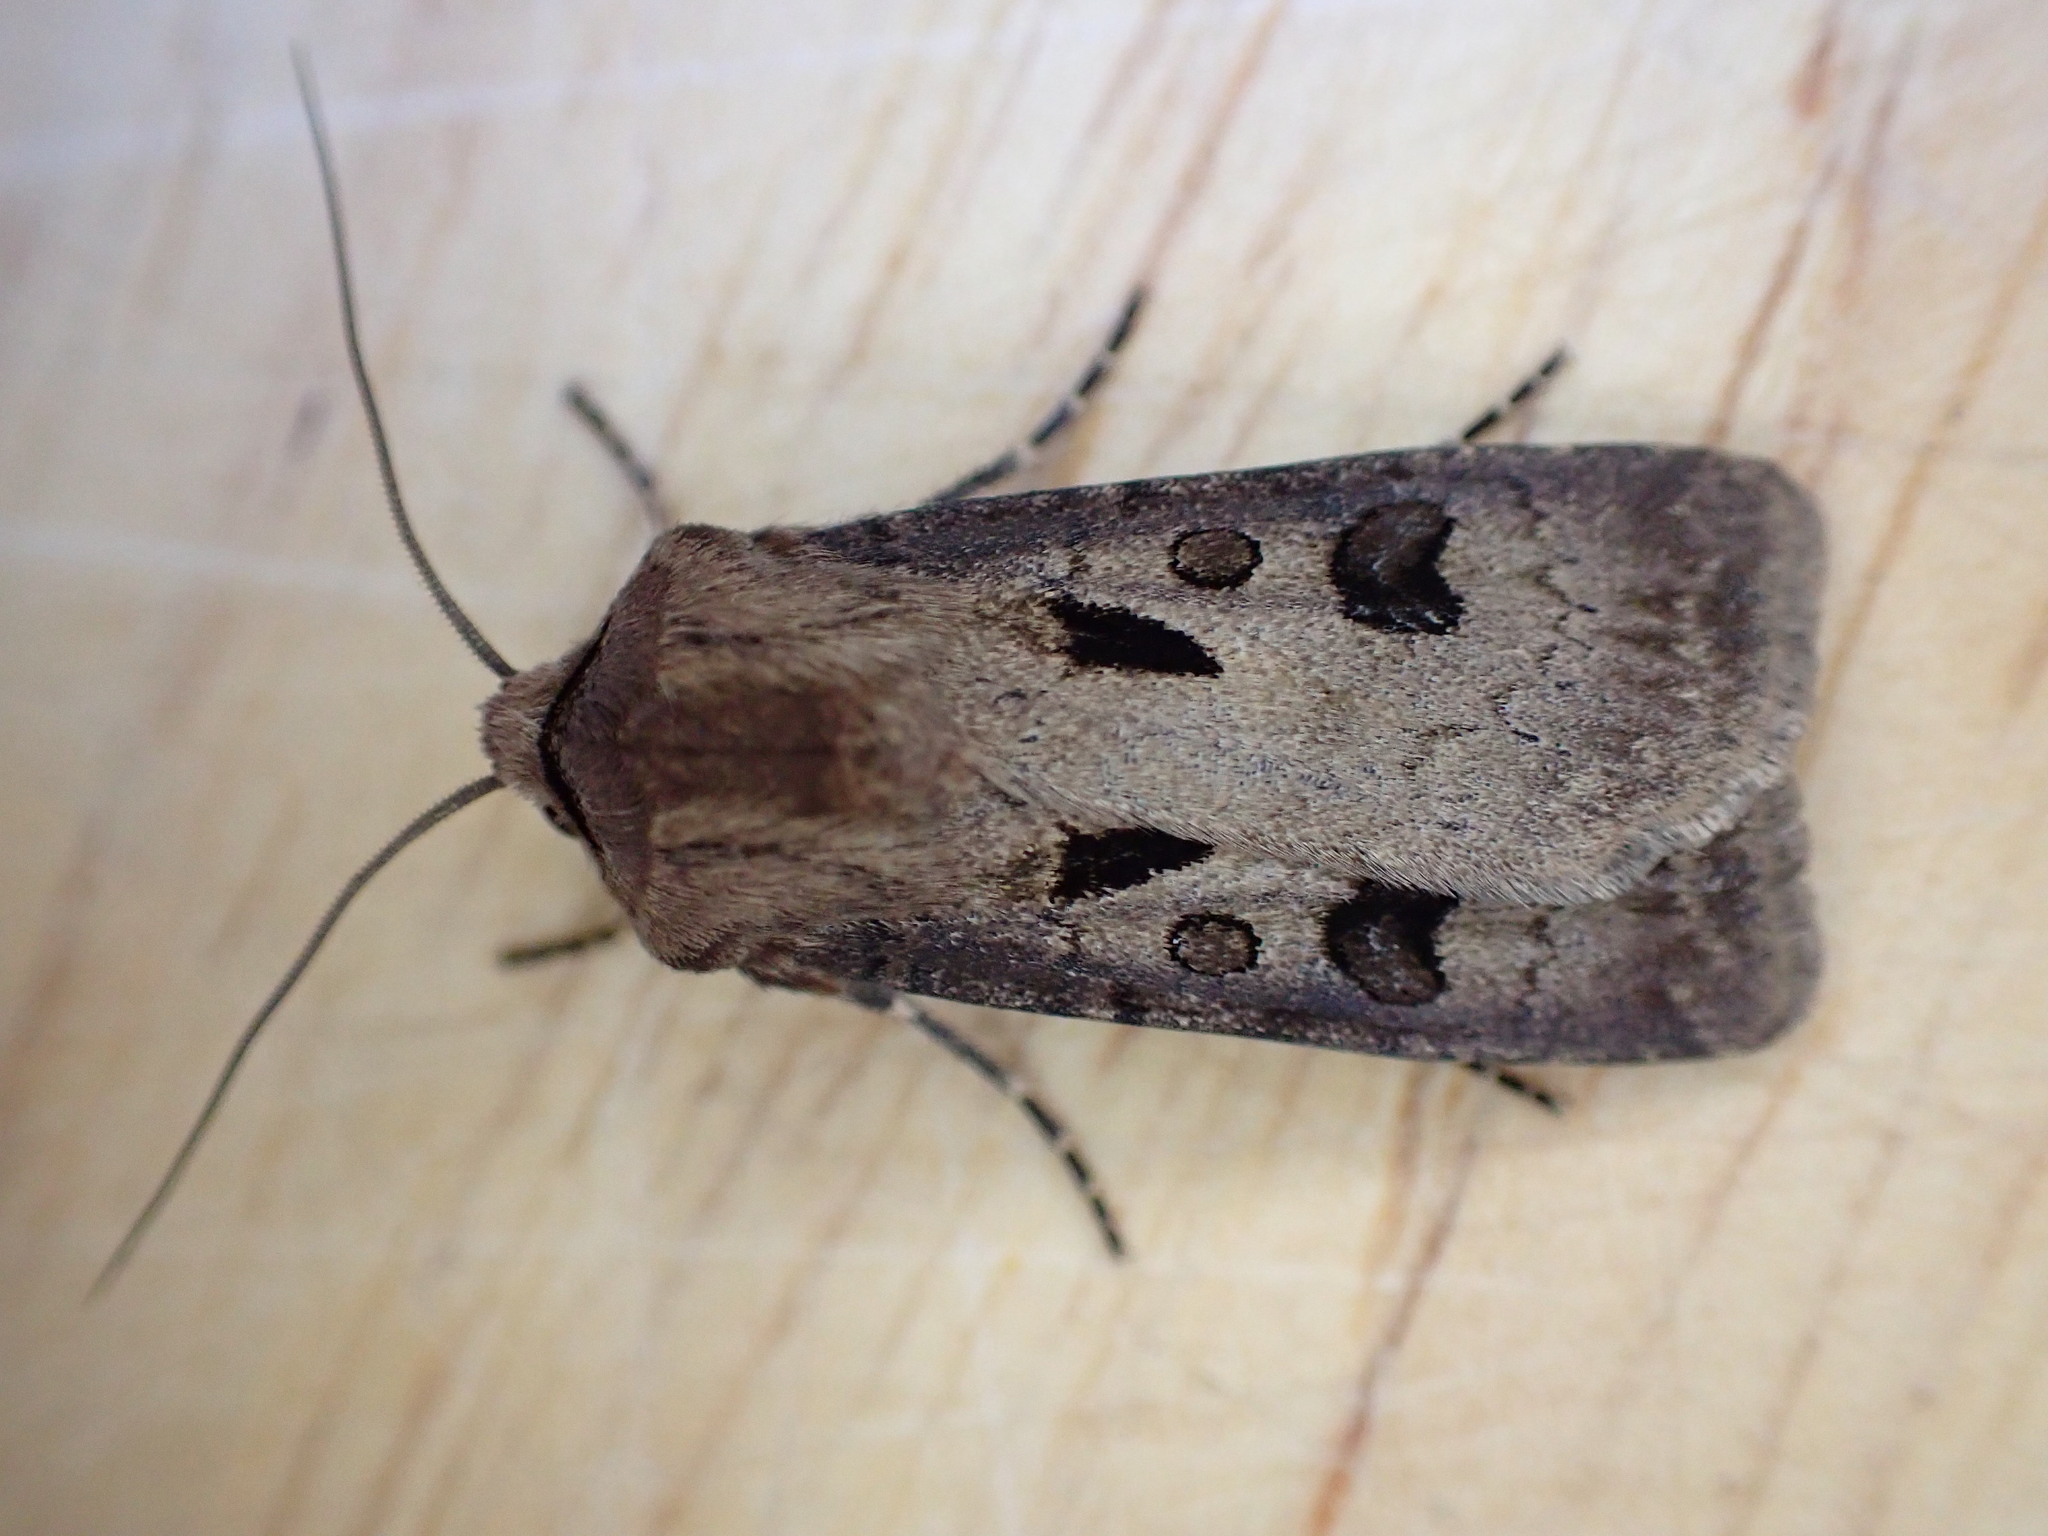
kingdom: Animalia
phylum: Arthropoda
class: Insecta
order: Lepidoptera
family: Noctuidae
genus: Agrotis
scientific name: Agrotis exclamationis
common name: Heart and dart
